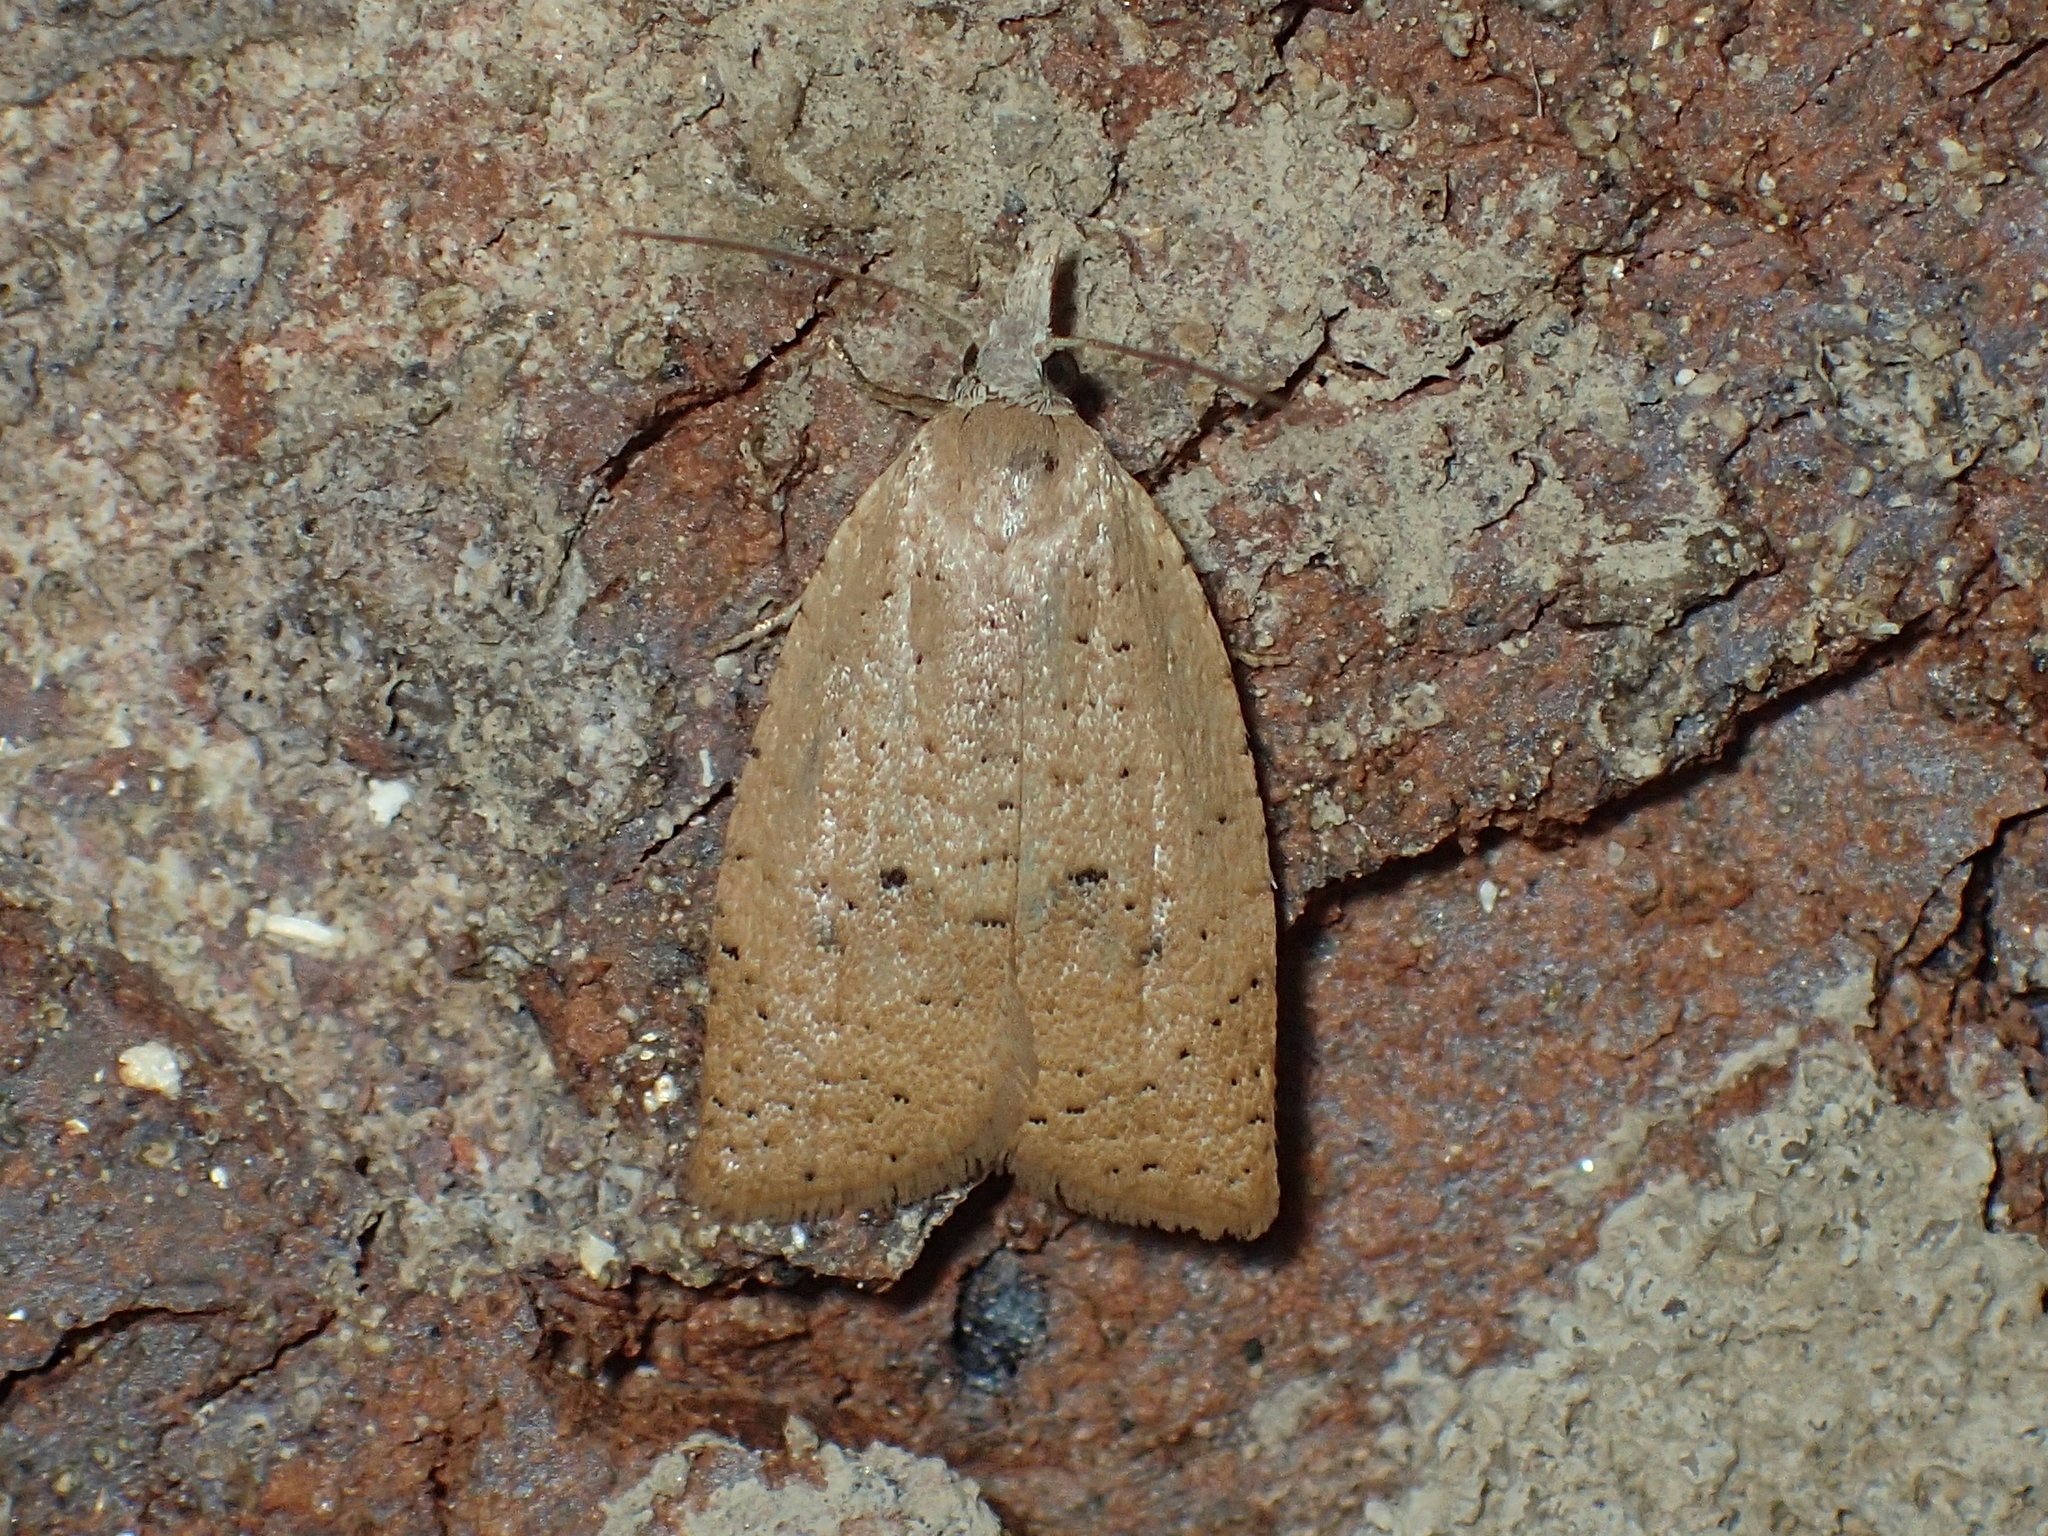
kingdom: Animalia
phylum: Arthropoda
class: Insecta
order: Lepidoptera
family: Tortricidae
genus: Sparganothoides
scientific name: Sparganothoides lentiginosana
